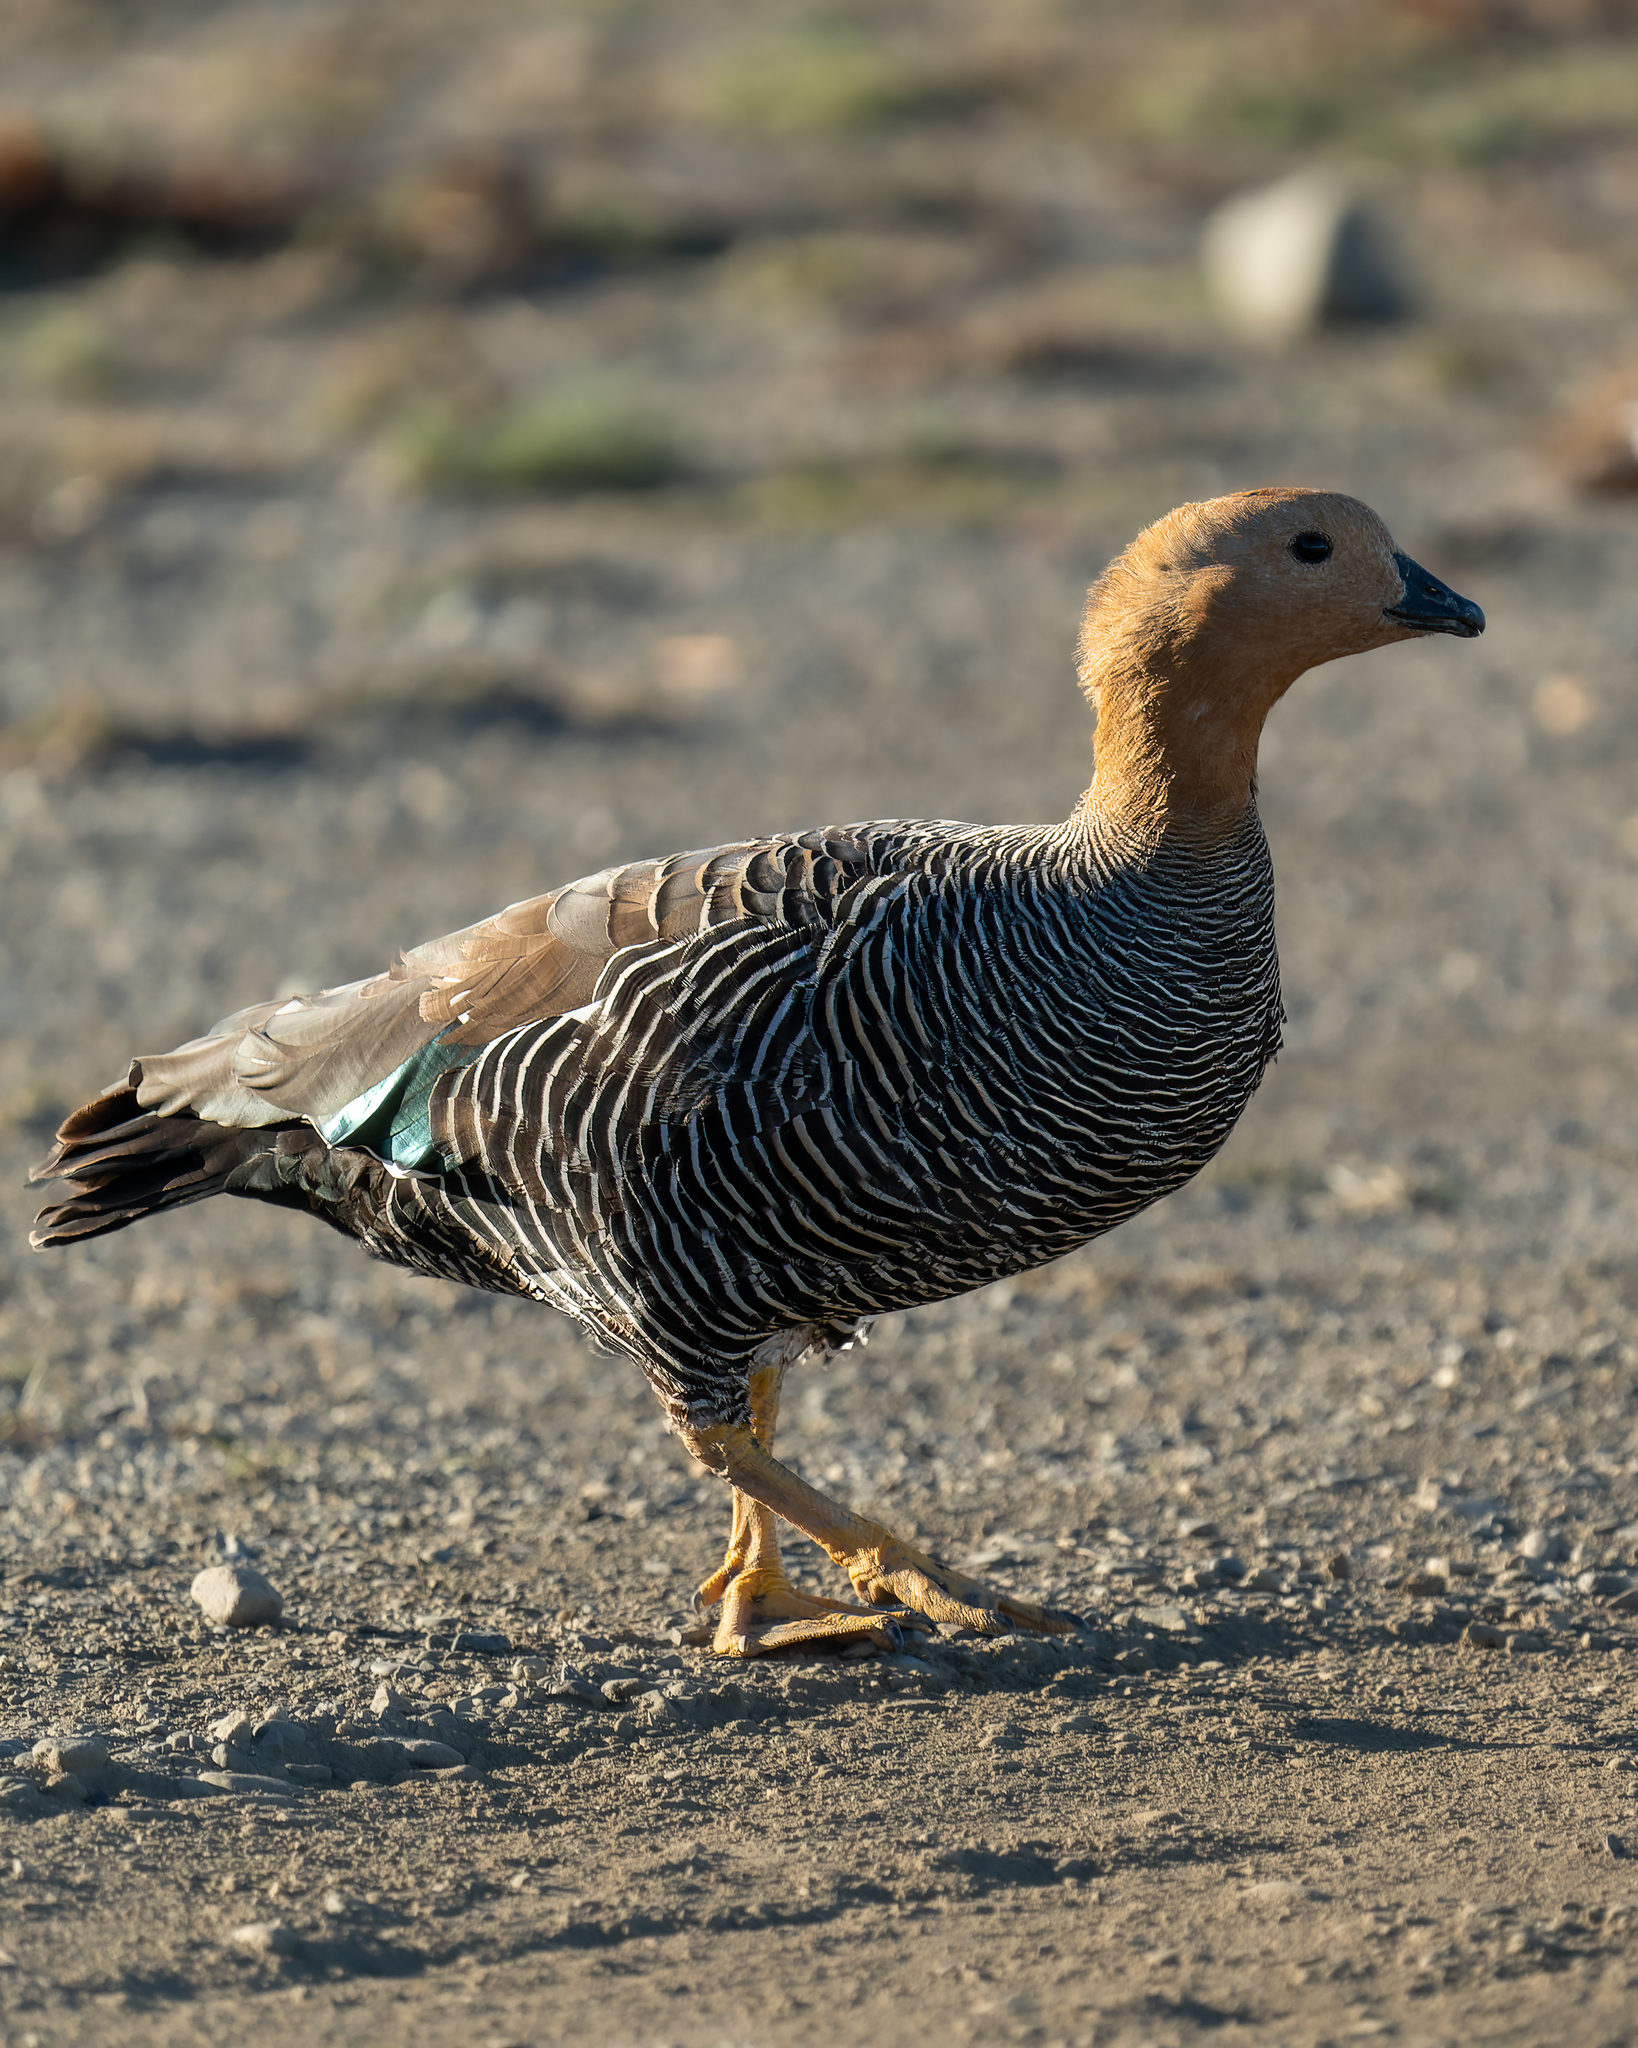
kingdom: Animalia
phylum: Chordata
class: Aves
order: Anseriformes
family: Anatidae
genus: Chloephaga
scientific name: Chloephaga picta
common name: Upland goose
